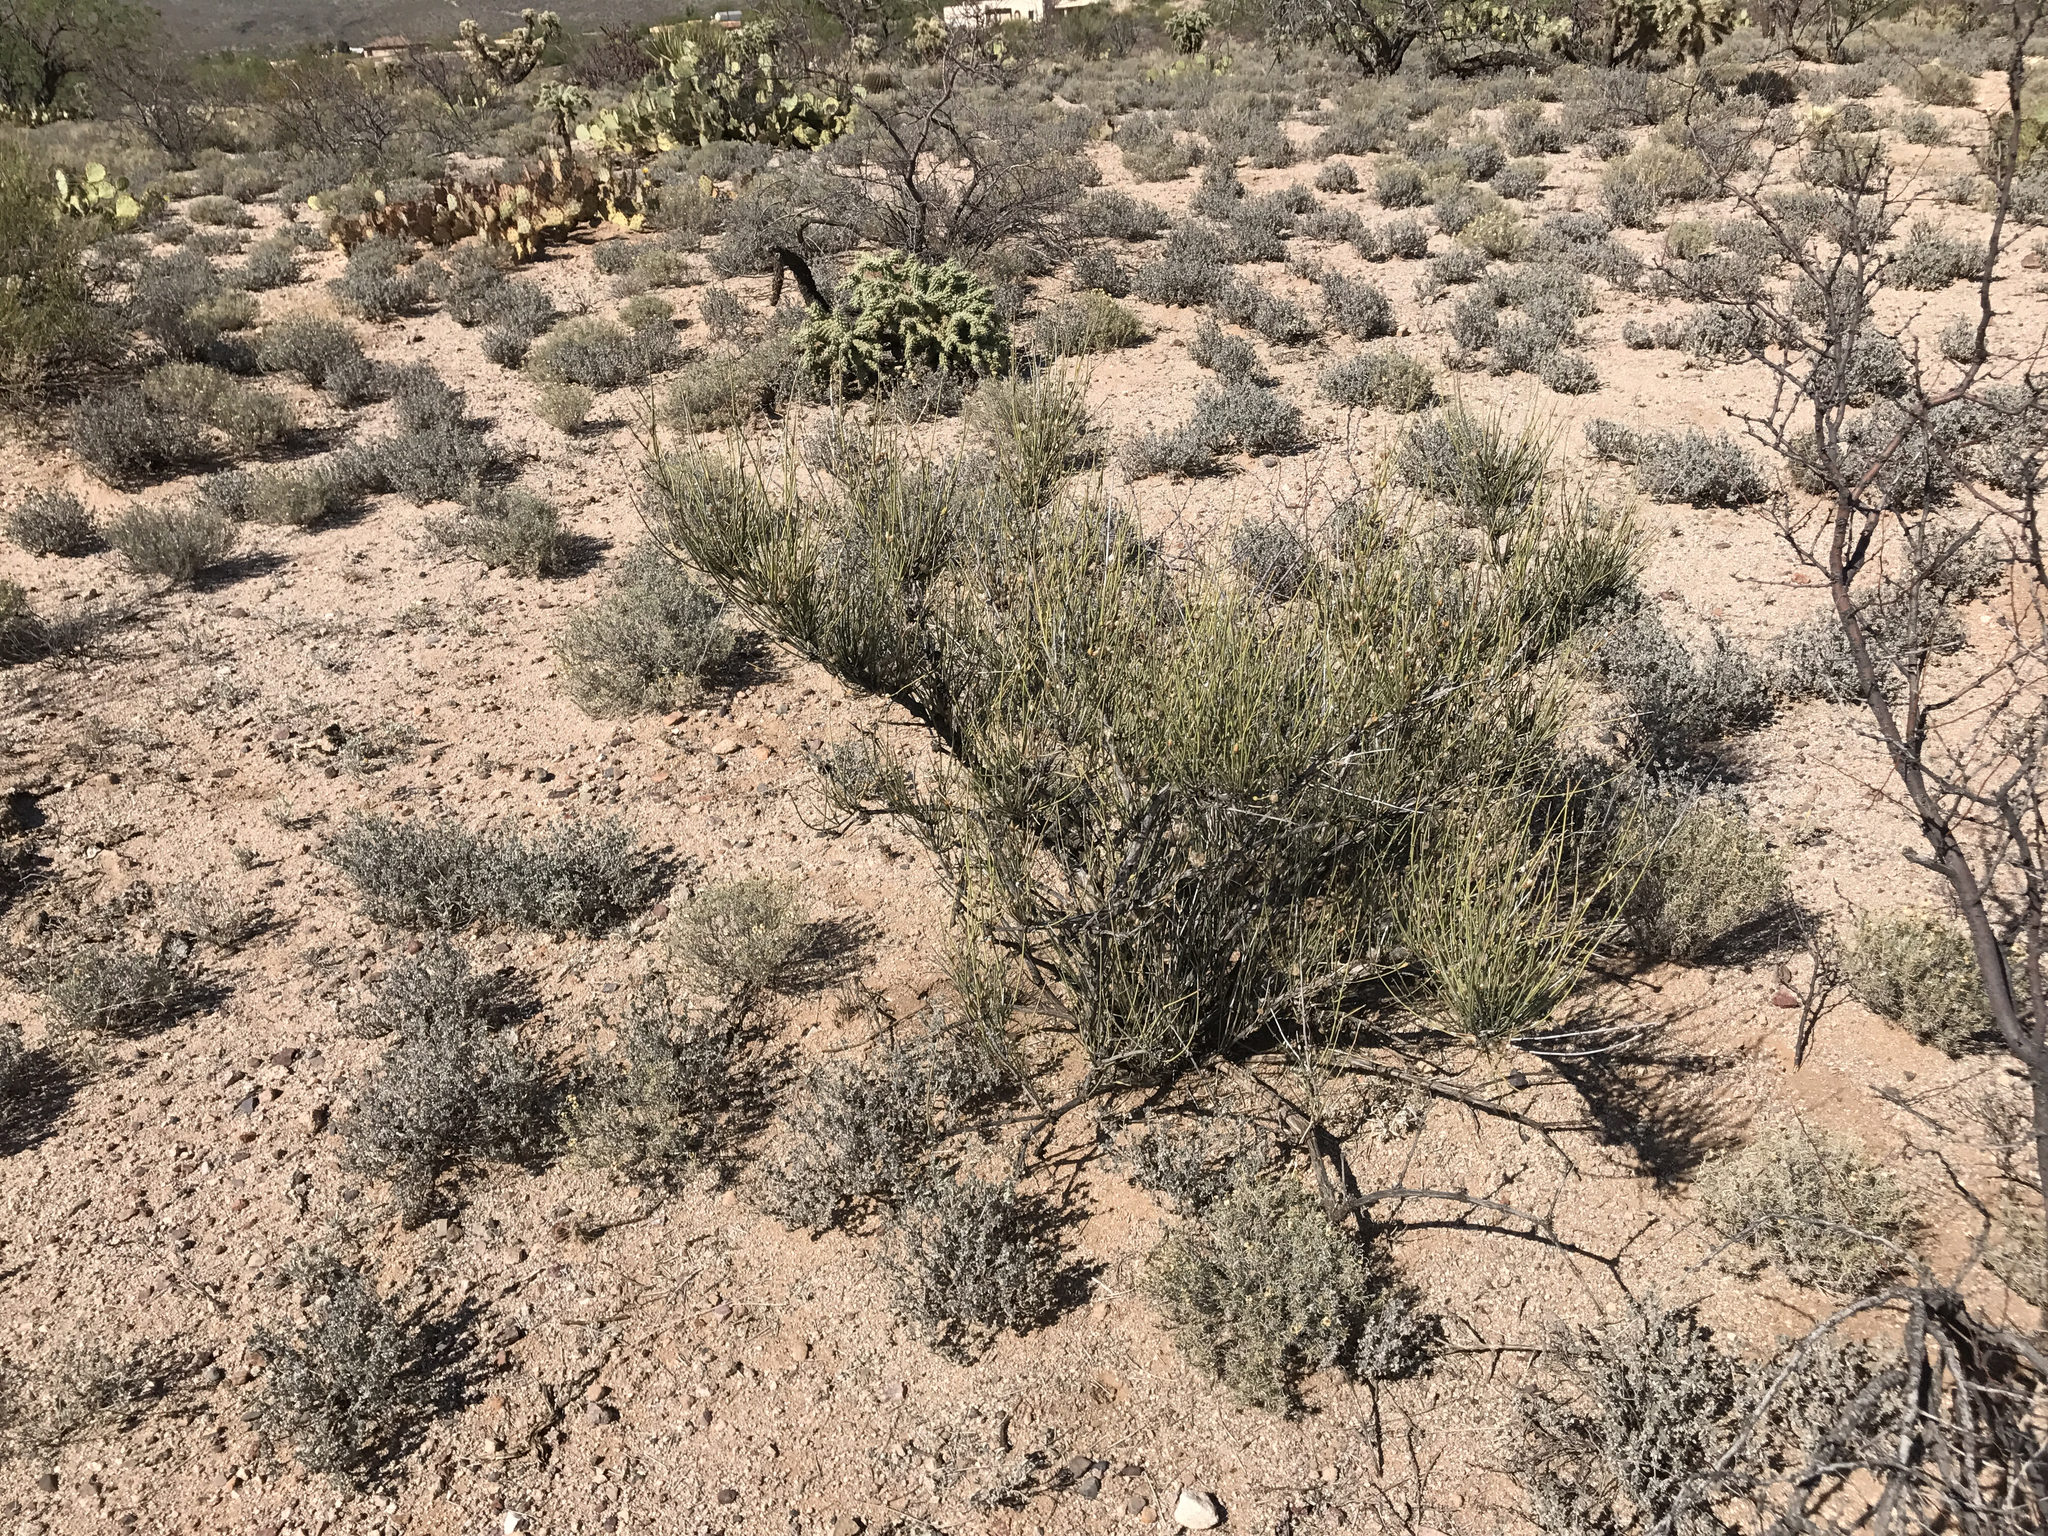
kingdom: Plantae
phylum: Tracheophyta
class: Gnetopsida
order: Ephedrales
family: Ephedraceae
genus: Ephedra
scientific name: Ephedra trifurca
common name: Mexican-tea
